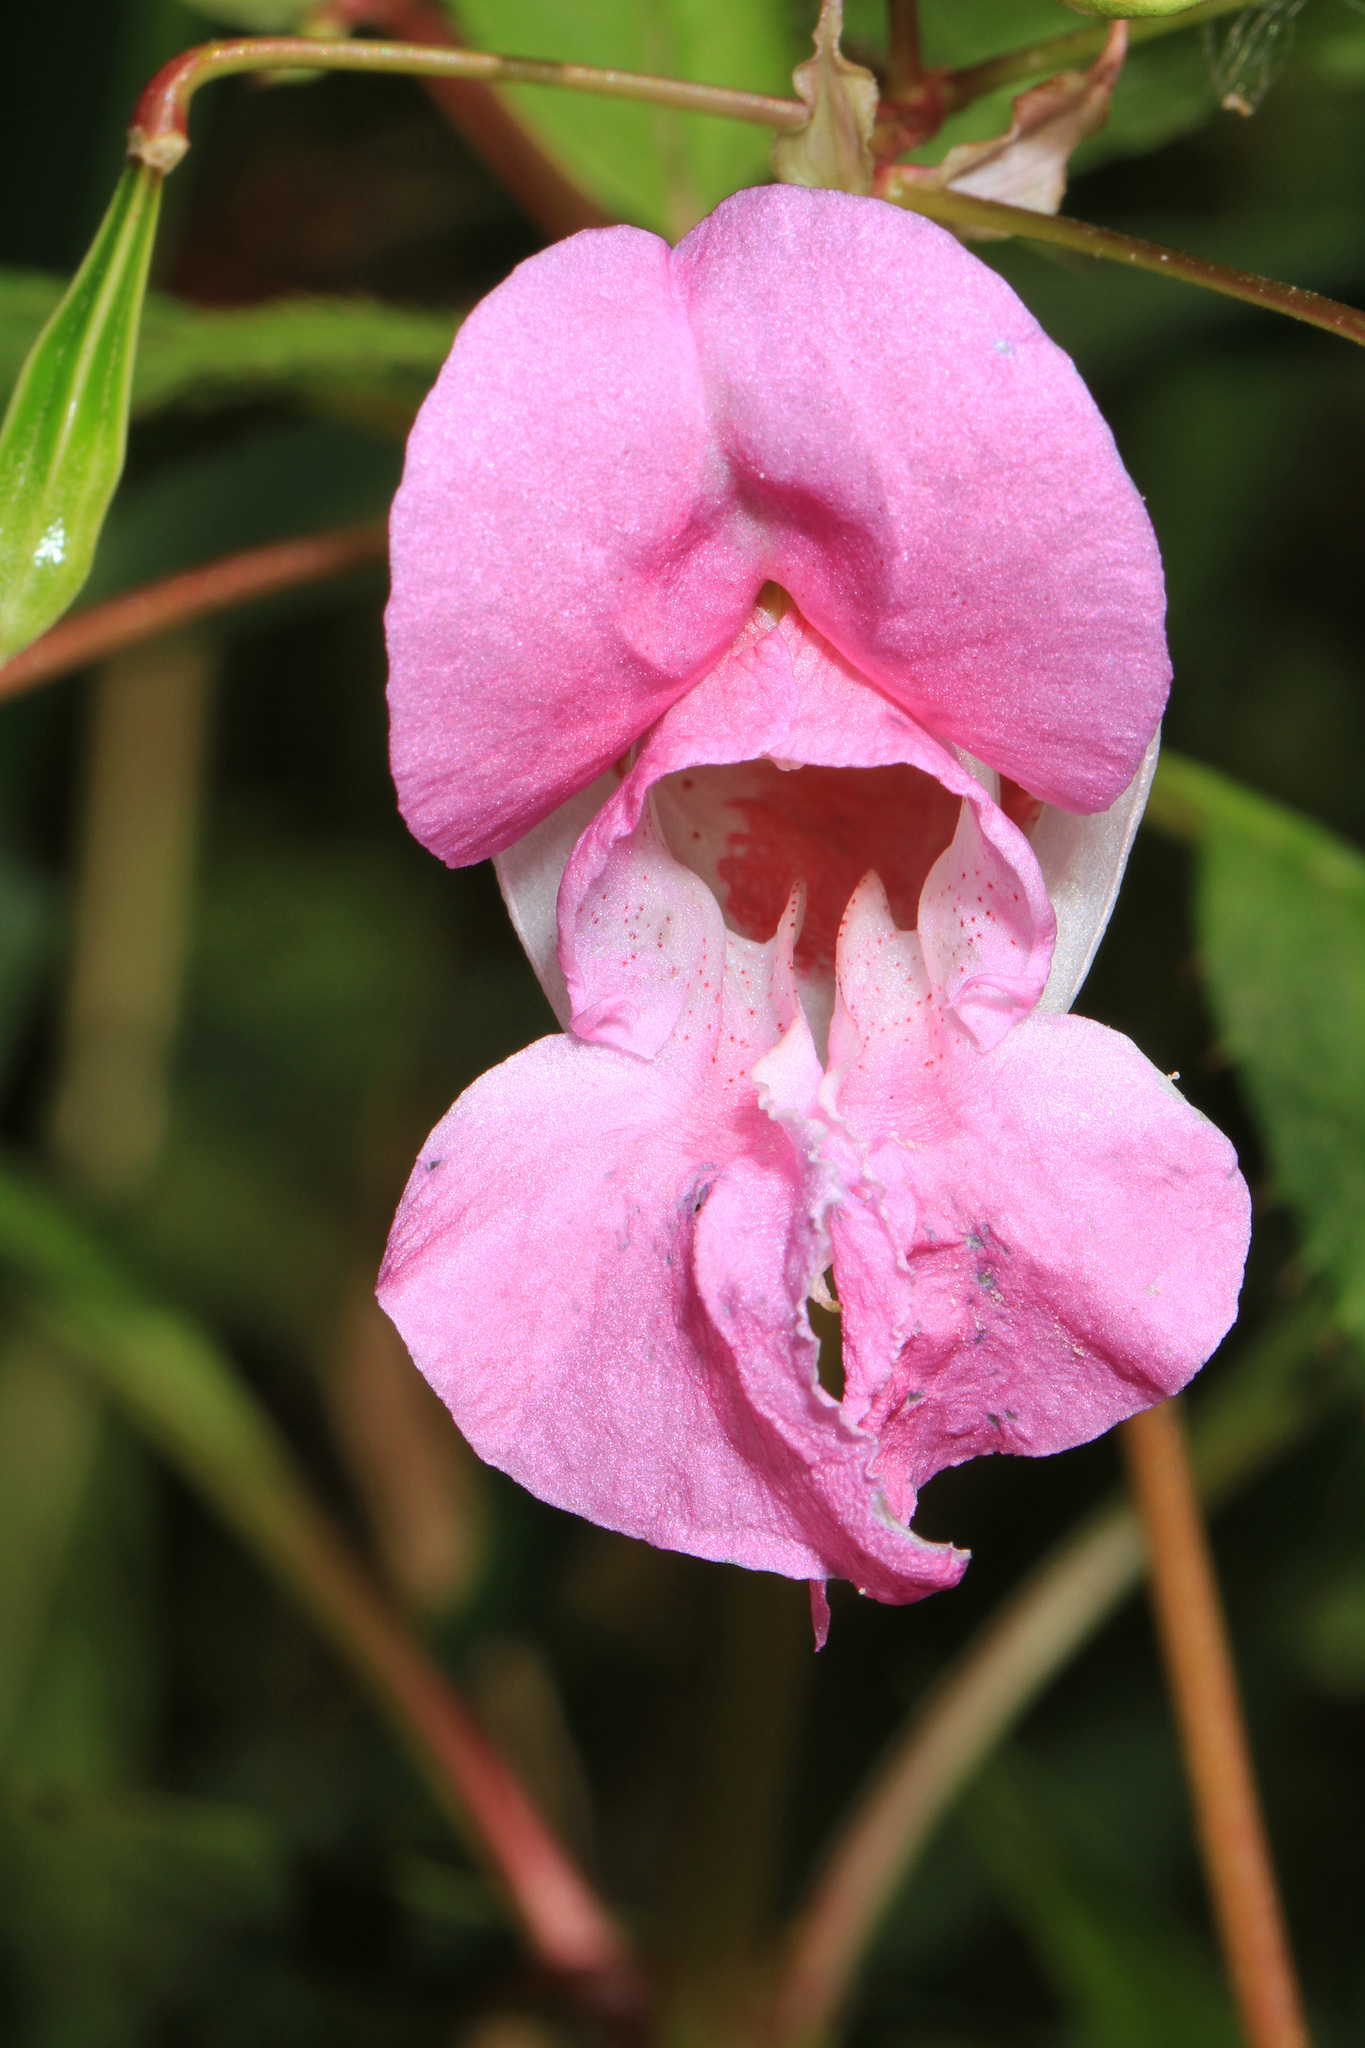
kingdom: Plantae
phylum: Tracheophyta
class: Magnoliopsida
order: Ericales
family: Balsaminaceae
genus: Impatiens
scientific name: Impatiens glandulifera
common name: Himalayan balsam
